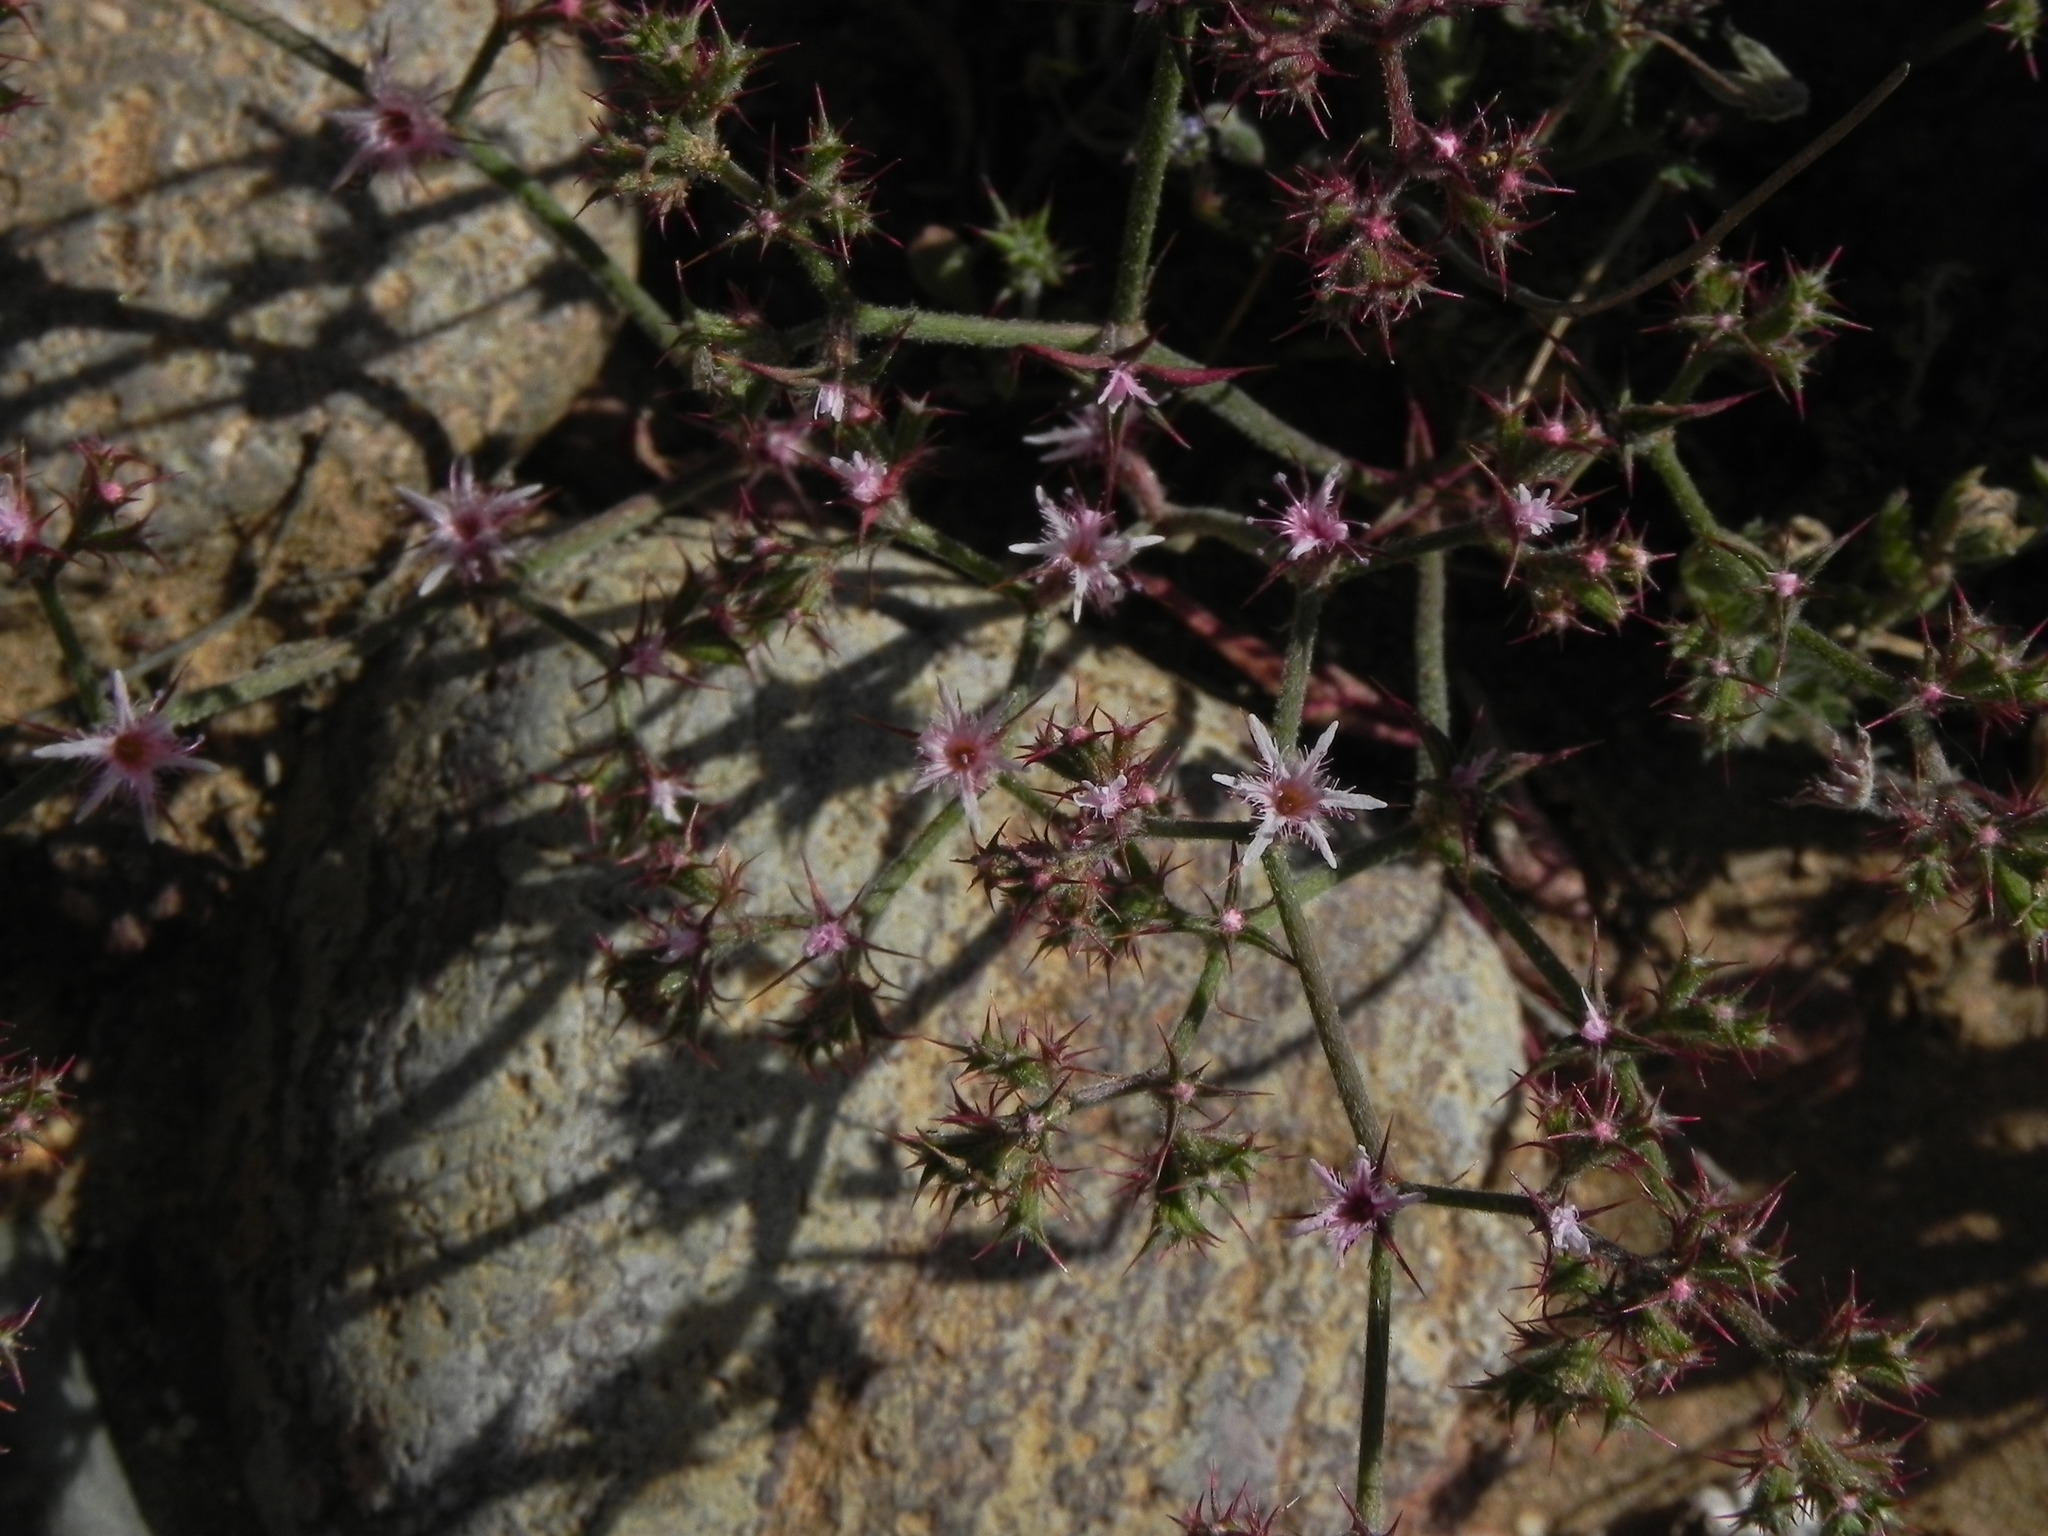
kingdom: Plantae
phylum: Tracheophyta
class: Magnoliopsida
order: Caryophyllales
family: Polygonaceae
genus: Chorizanthe
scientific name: Chorizanthe fimbriata
